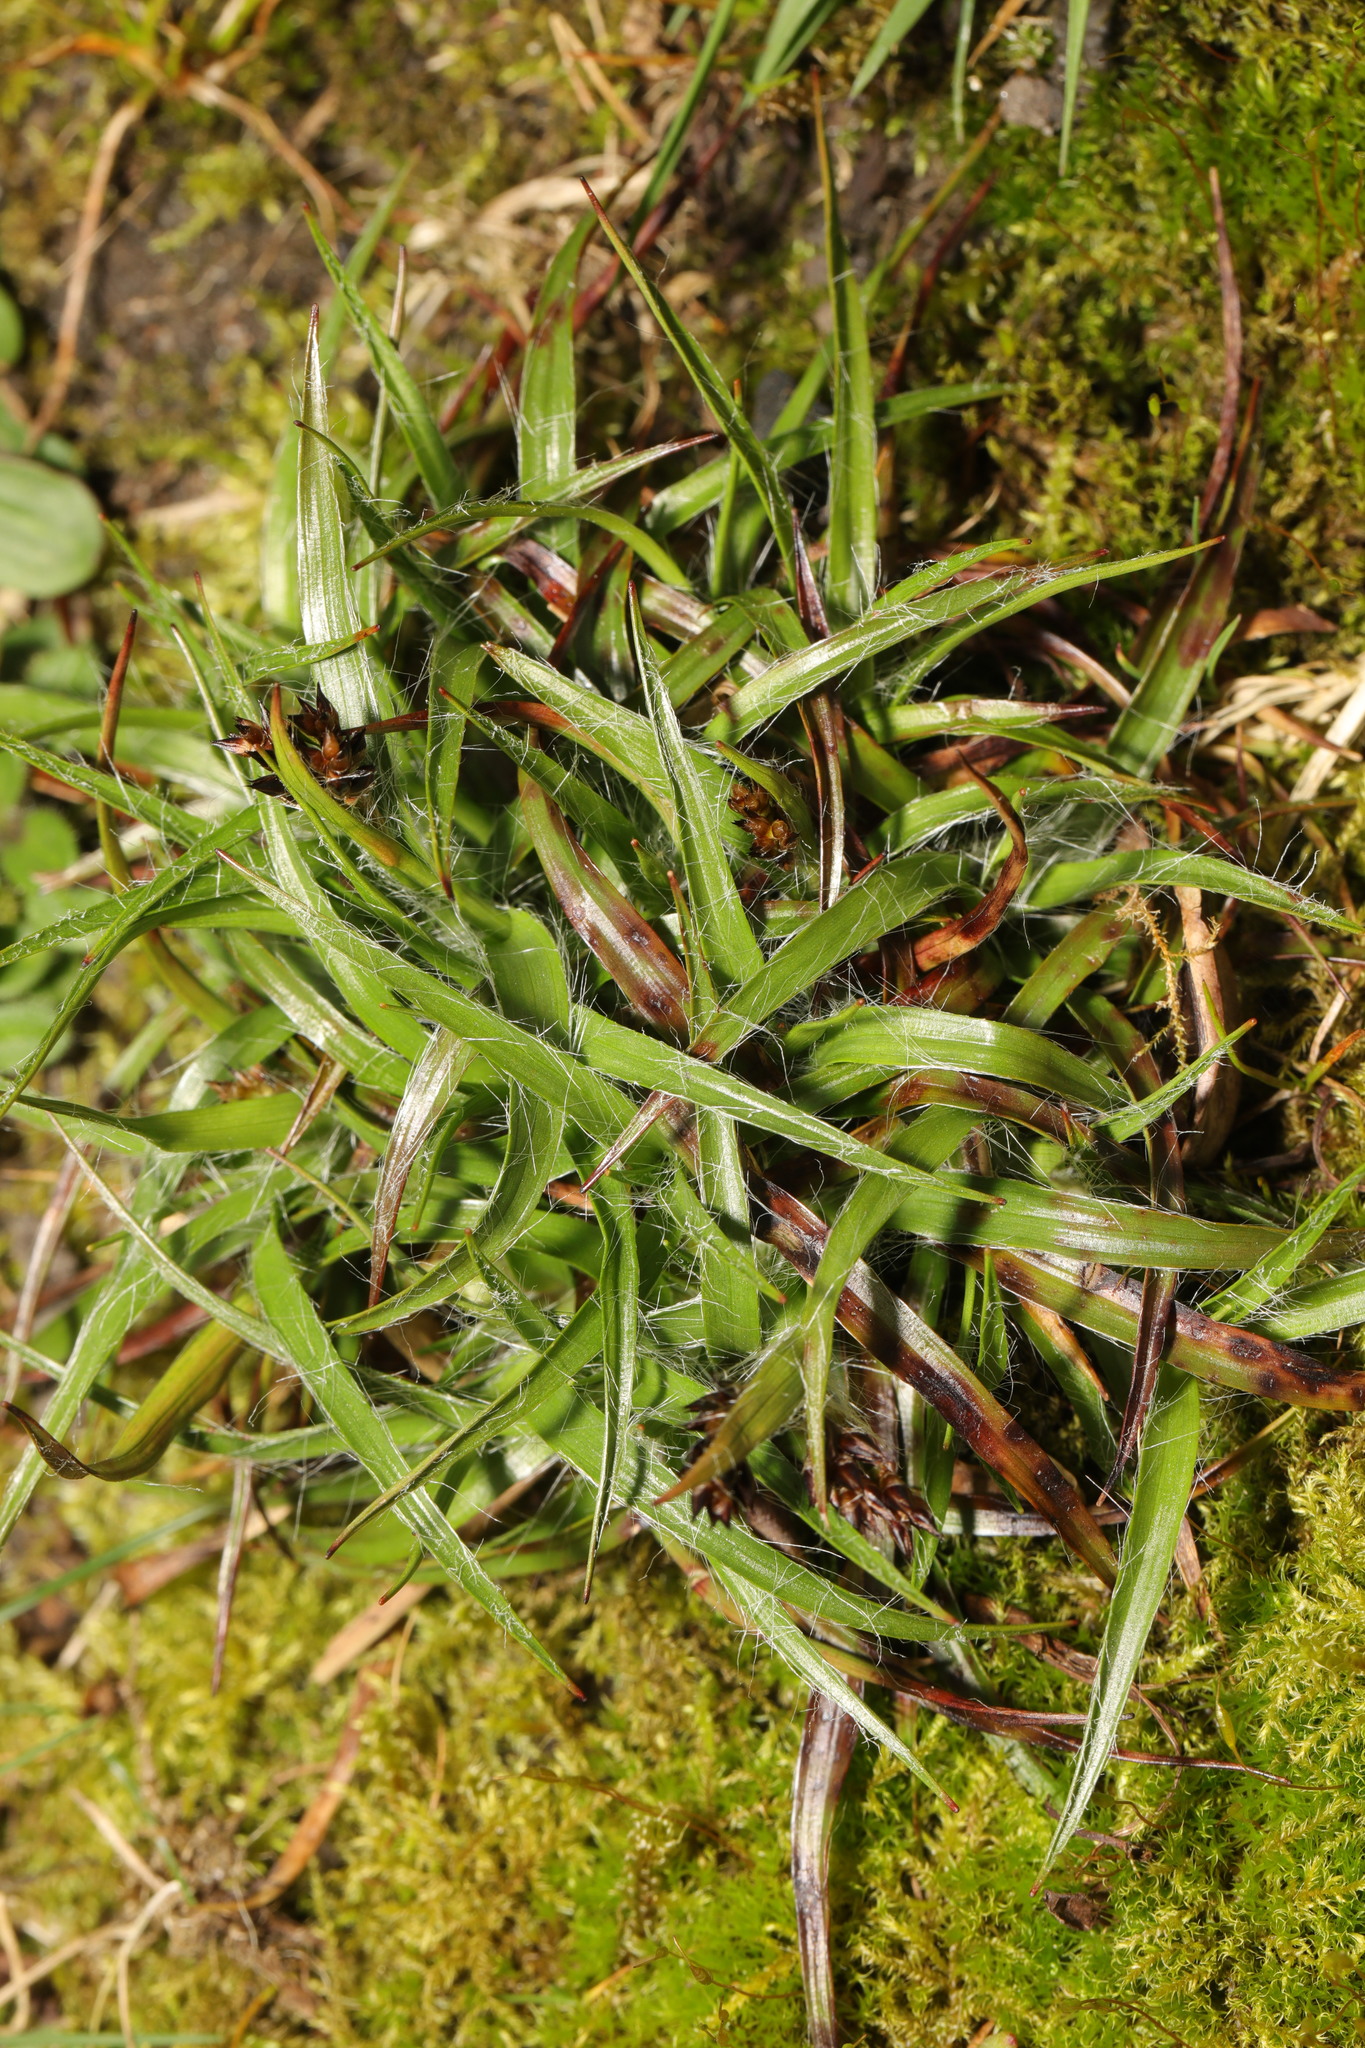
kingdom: Plantae
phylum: Tracheophyta
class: Liliopsida
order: Poales
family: Juncaceae
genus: Luzula
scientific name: Luzula campestris
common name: Field wood-rush
